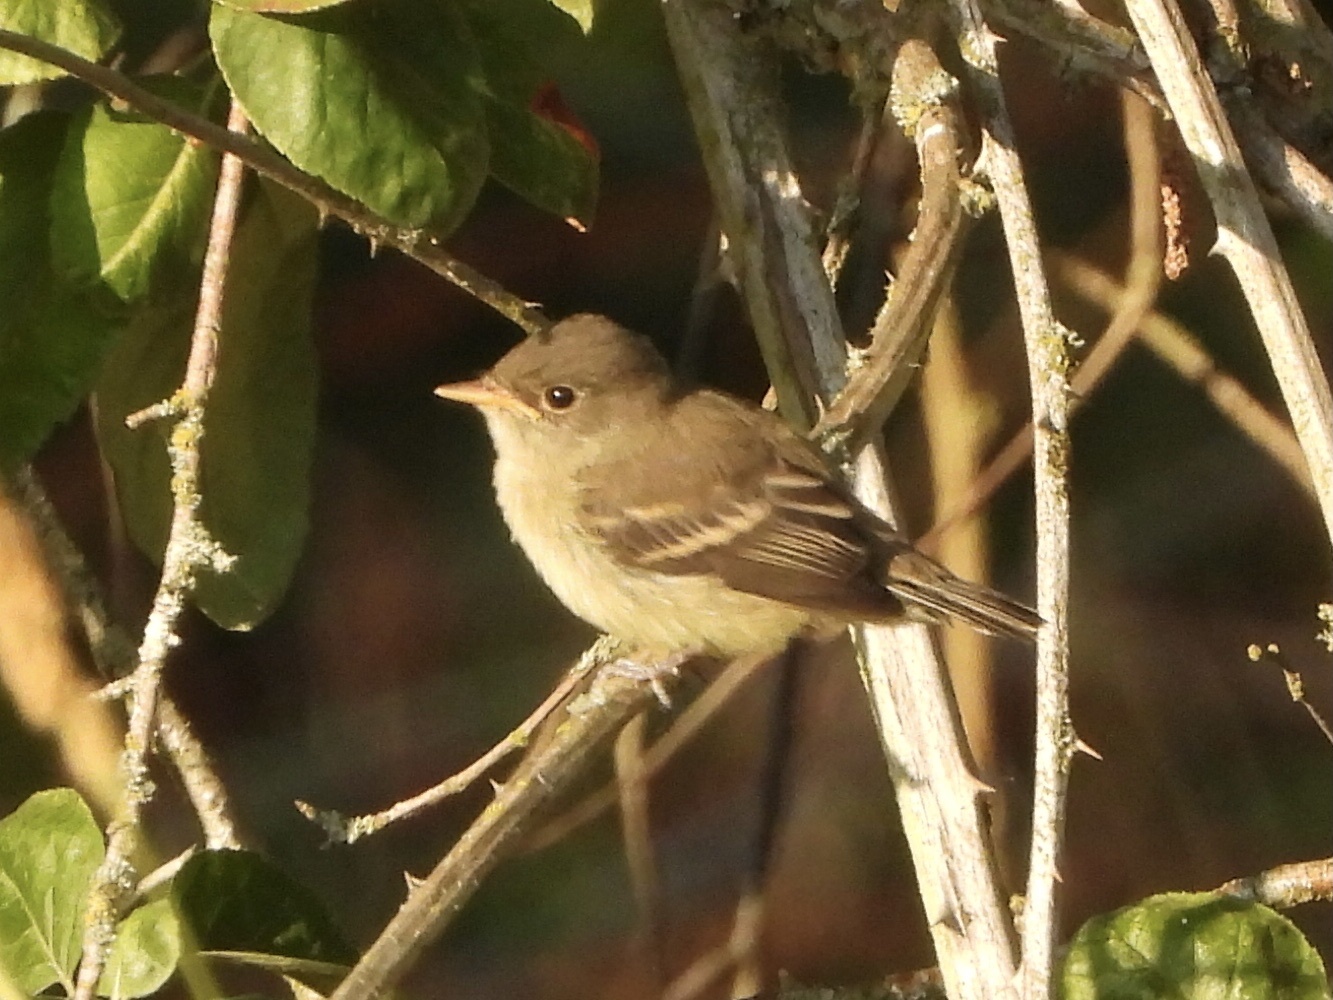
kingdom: Animalia
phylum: Chordata
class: Aves
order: Passeriformes
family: Tyrannidae
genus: Empidonax
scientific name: Empidonax traillii
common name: Willow flycatcher
